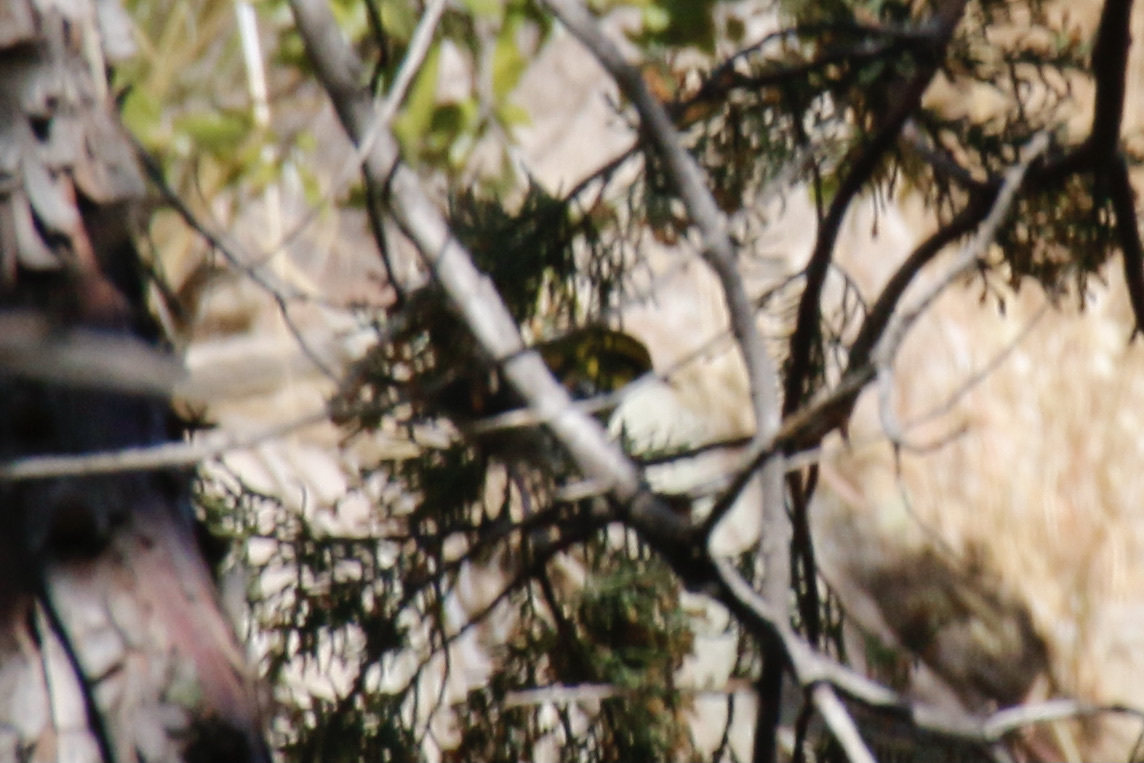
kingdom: Animalia
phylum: Chordata
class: Aves
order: Passeriformes
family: Parulidae
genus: Setophaga
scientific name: Setophaga townsendi
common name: Townsend's warbler
